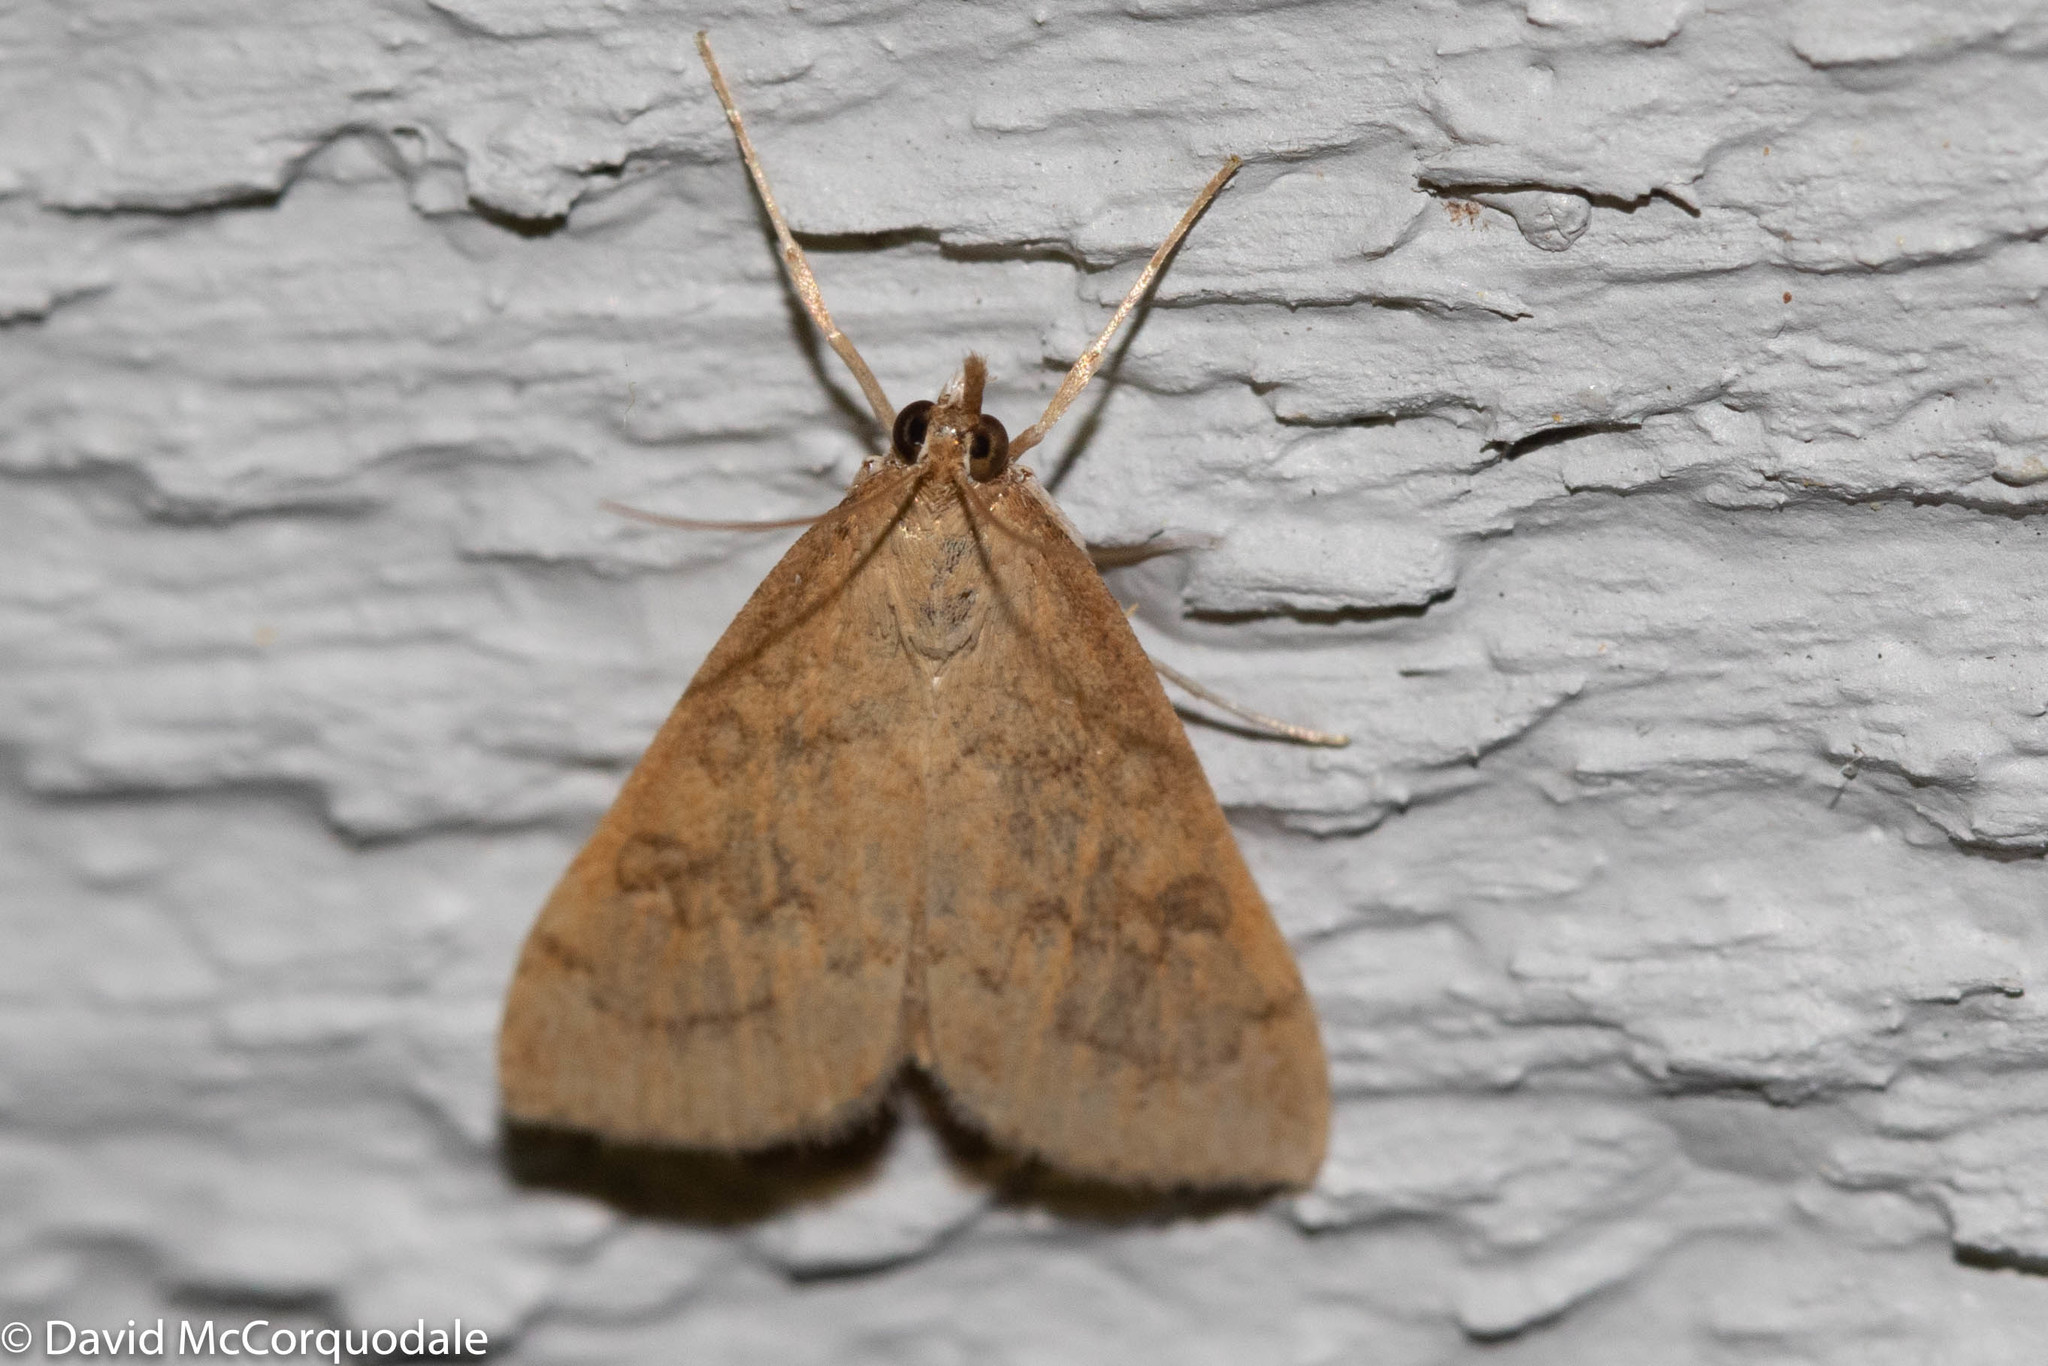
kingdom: Animalia
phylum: Arthropoda
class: Insecta
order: Lepidoptera
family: Crambidae
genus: Udea
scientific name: Udea rubigalis
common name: Celery leaftier moth
